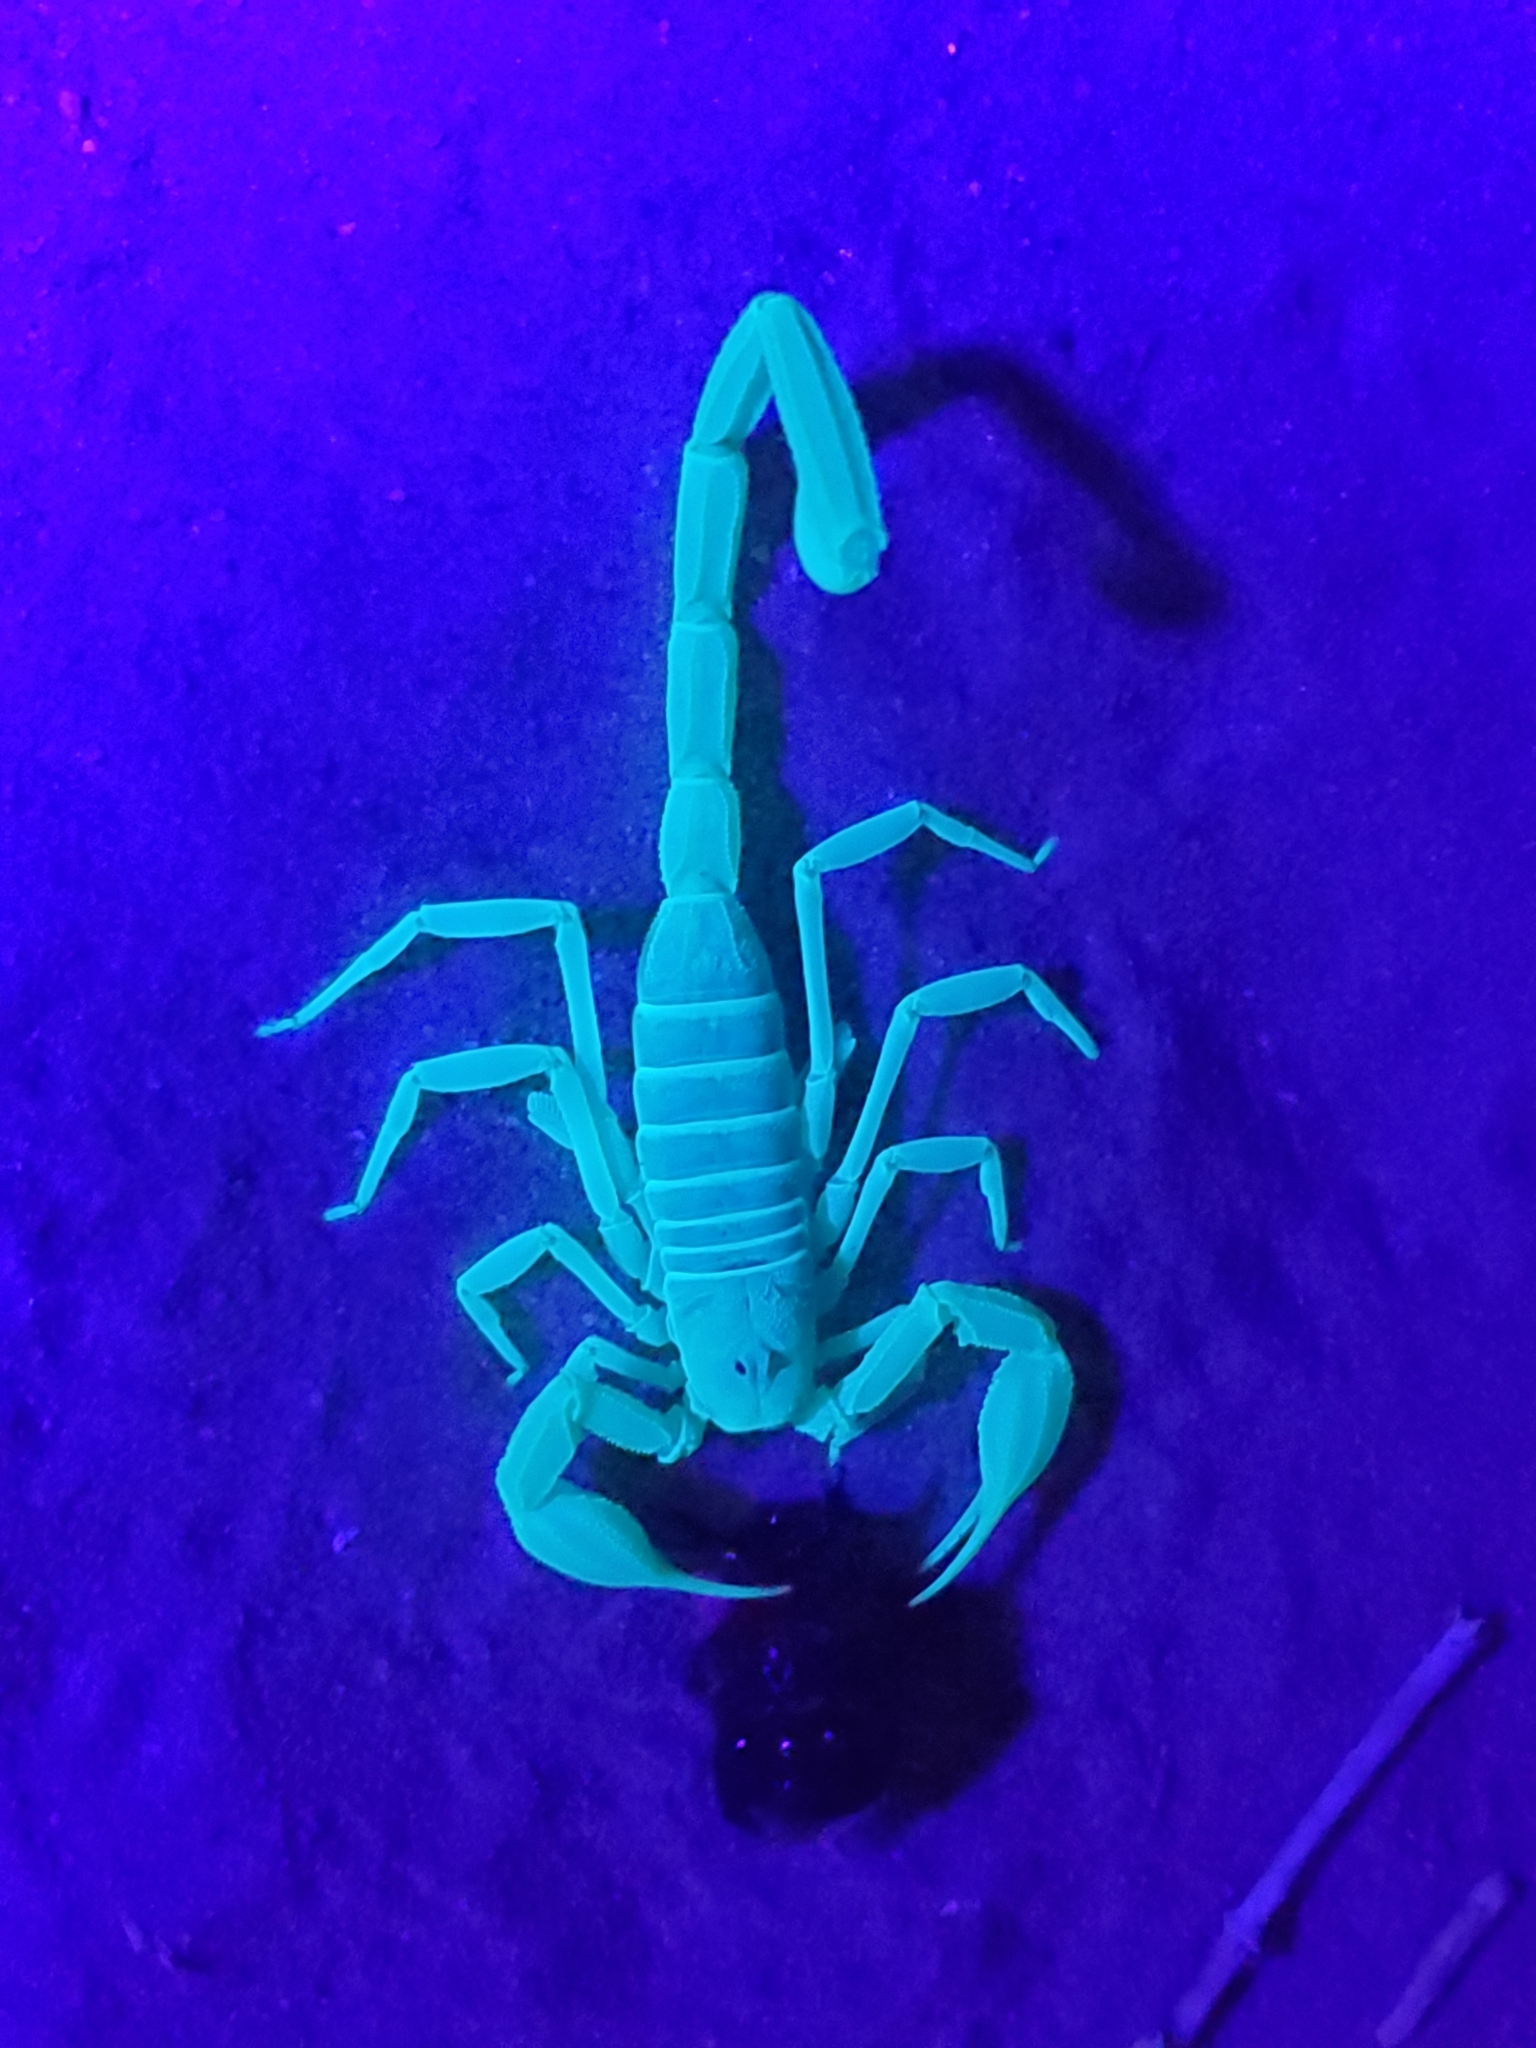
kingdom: Animalia
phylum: Arthropoda
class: Arachnida
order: Scorpiones
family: Vaejovidae
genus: Smeringurus
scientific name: Smeringurus mesaensis
